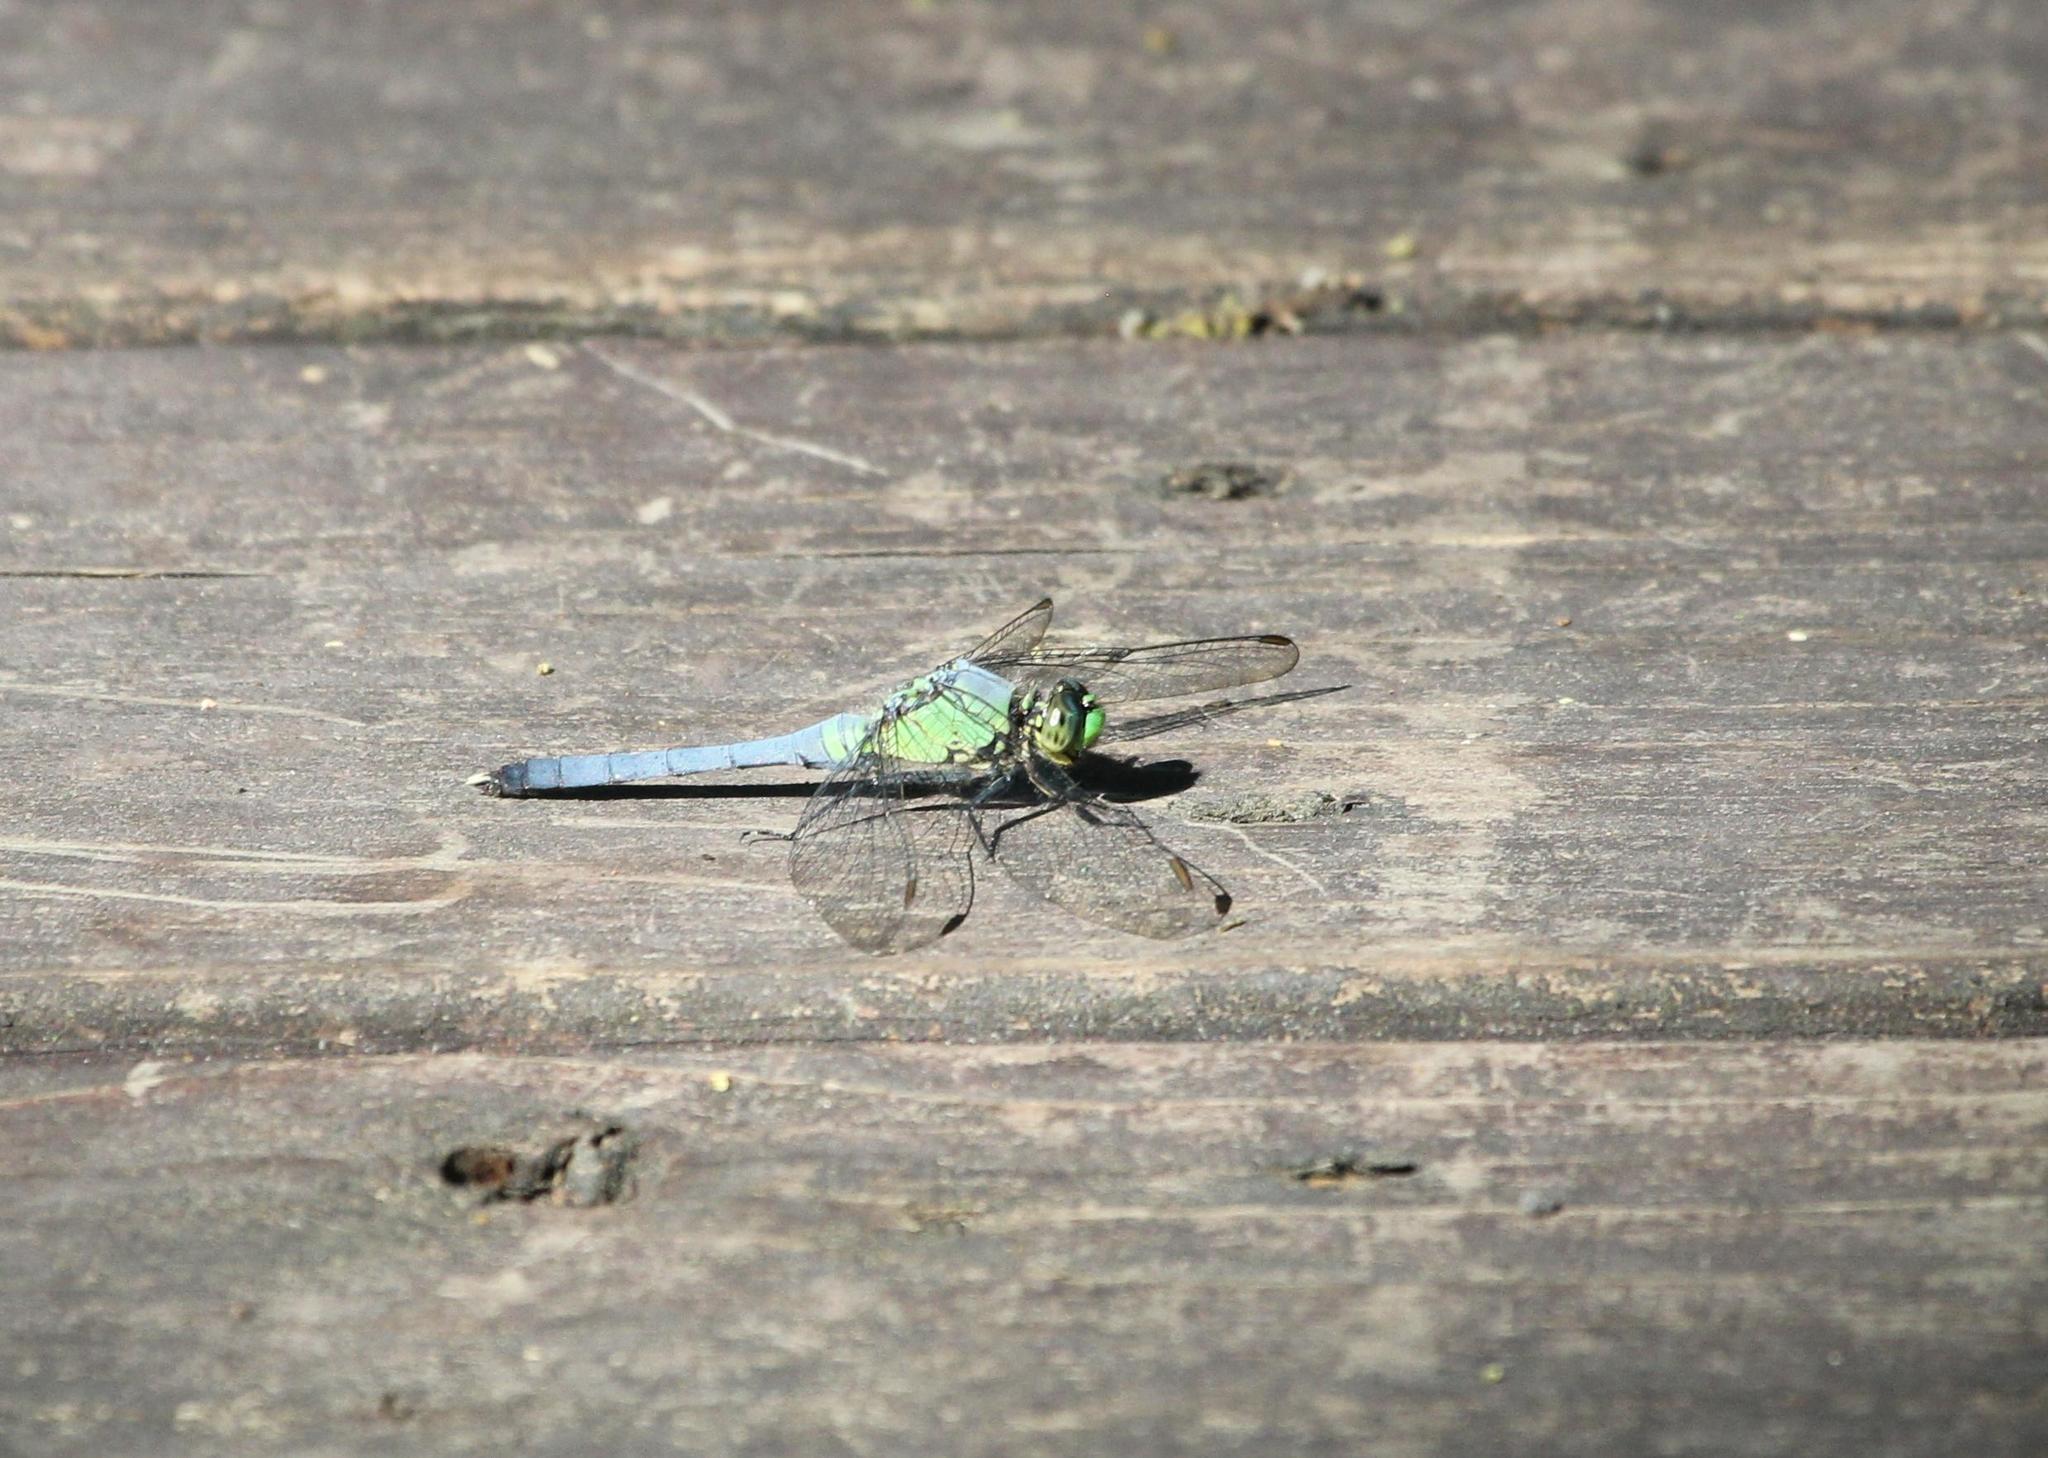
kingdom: Animalia
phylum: Arthropoda
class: Insecta
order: Odonata
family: Libellulidae
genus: Erythemis
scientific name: Erythemis simplicicollis
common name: Eastern pondhawk
